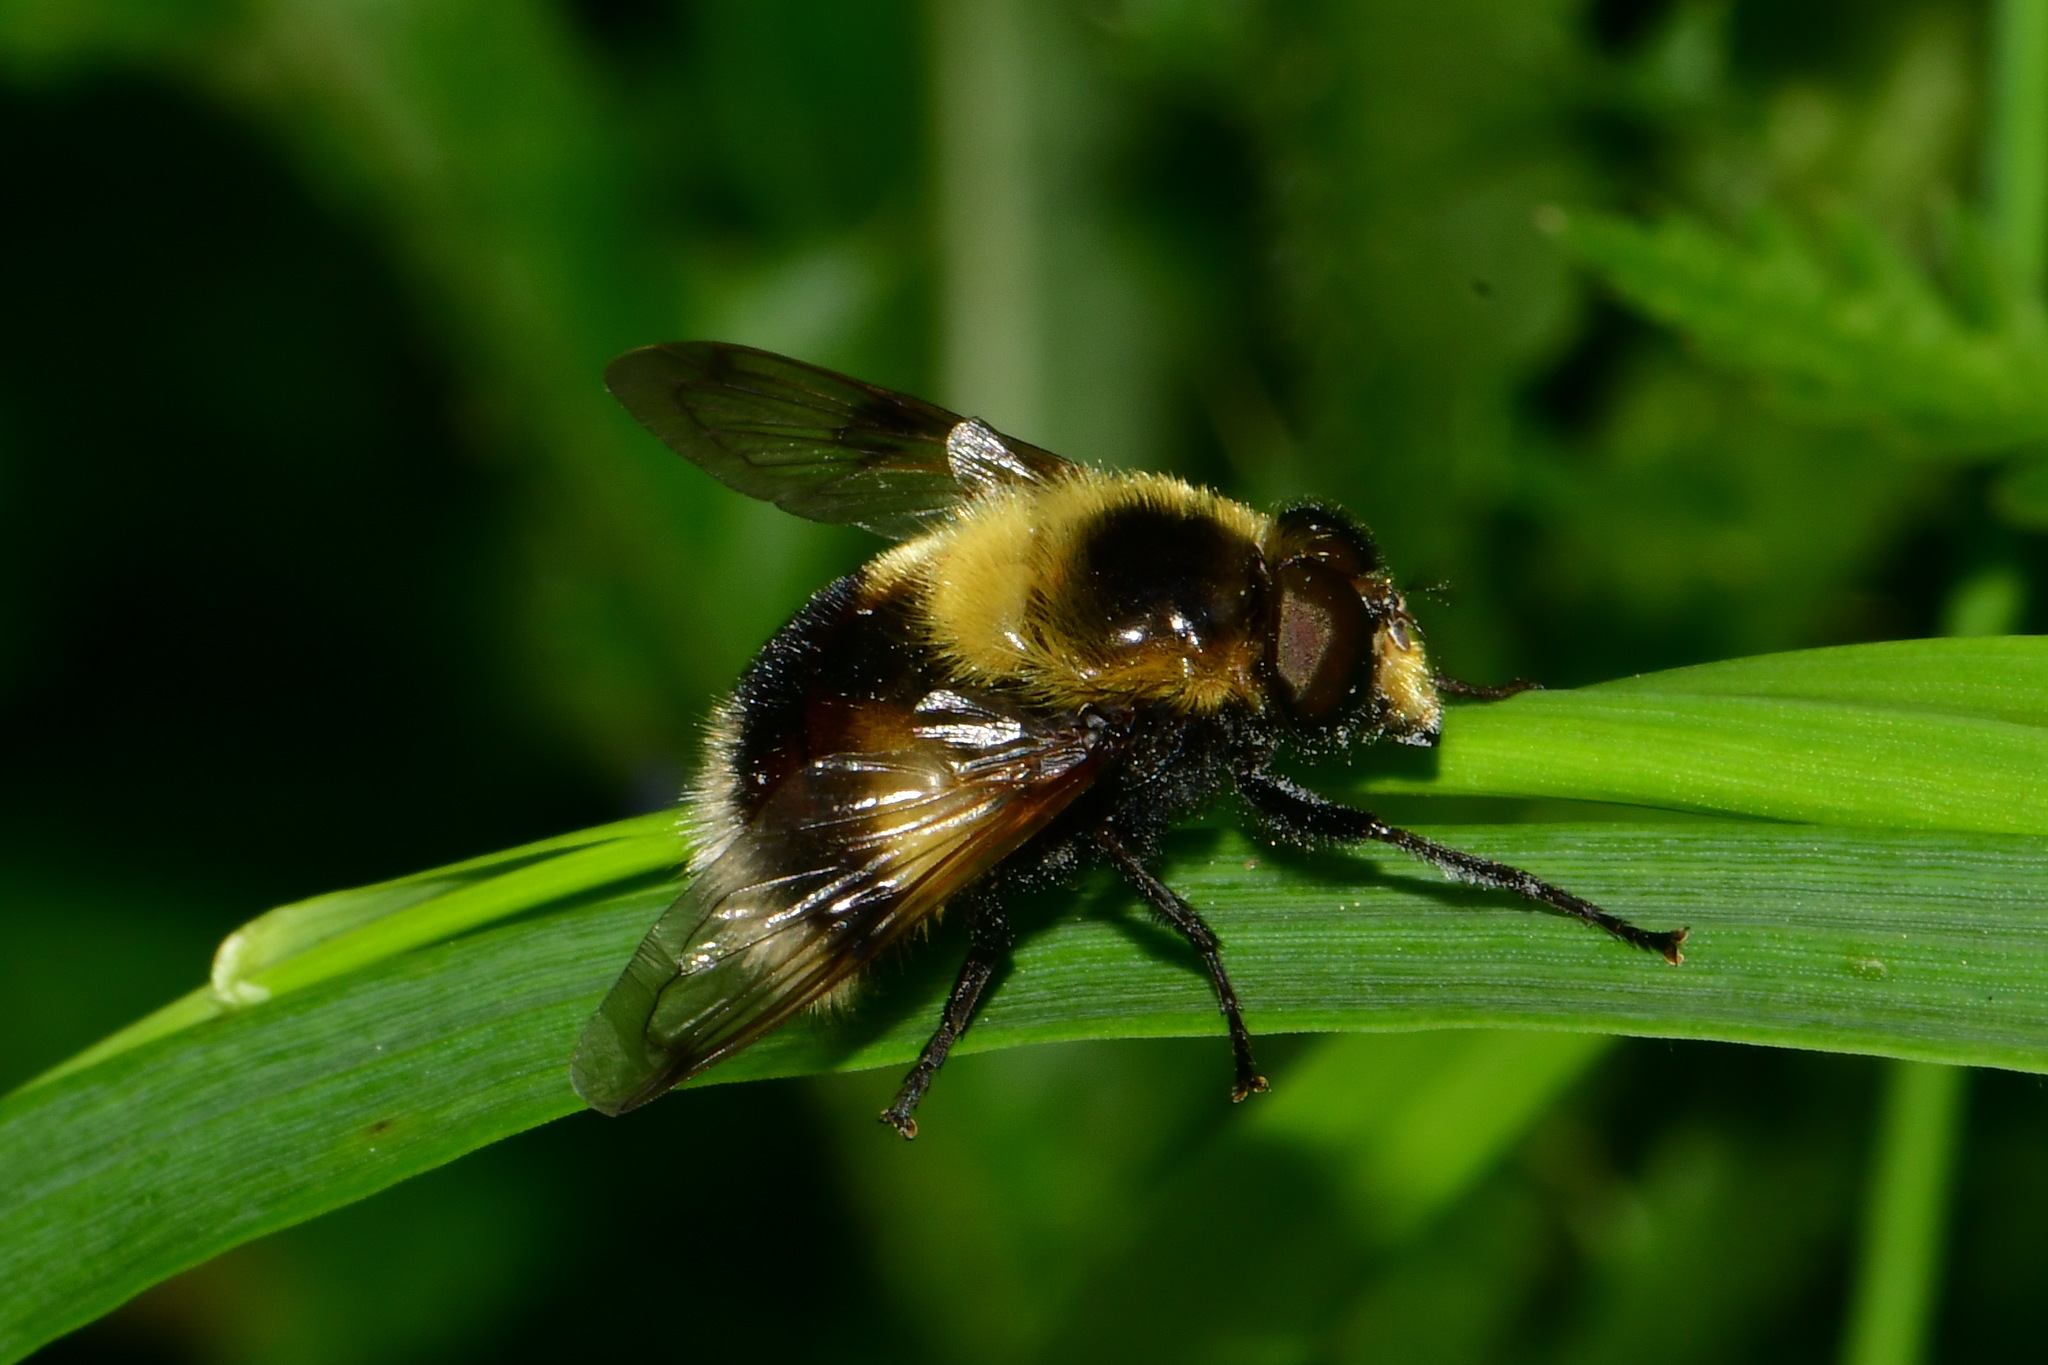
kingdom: Animalia
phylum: Arthropoda
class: Insecta
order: Diptera
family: Syrphidae
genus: Volucella
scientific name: Volucella bombylans
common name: Bumble bee hover fly
